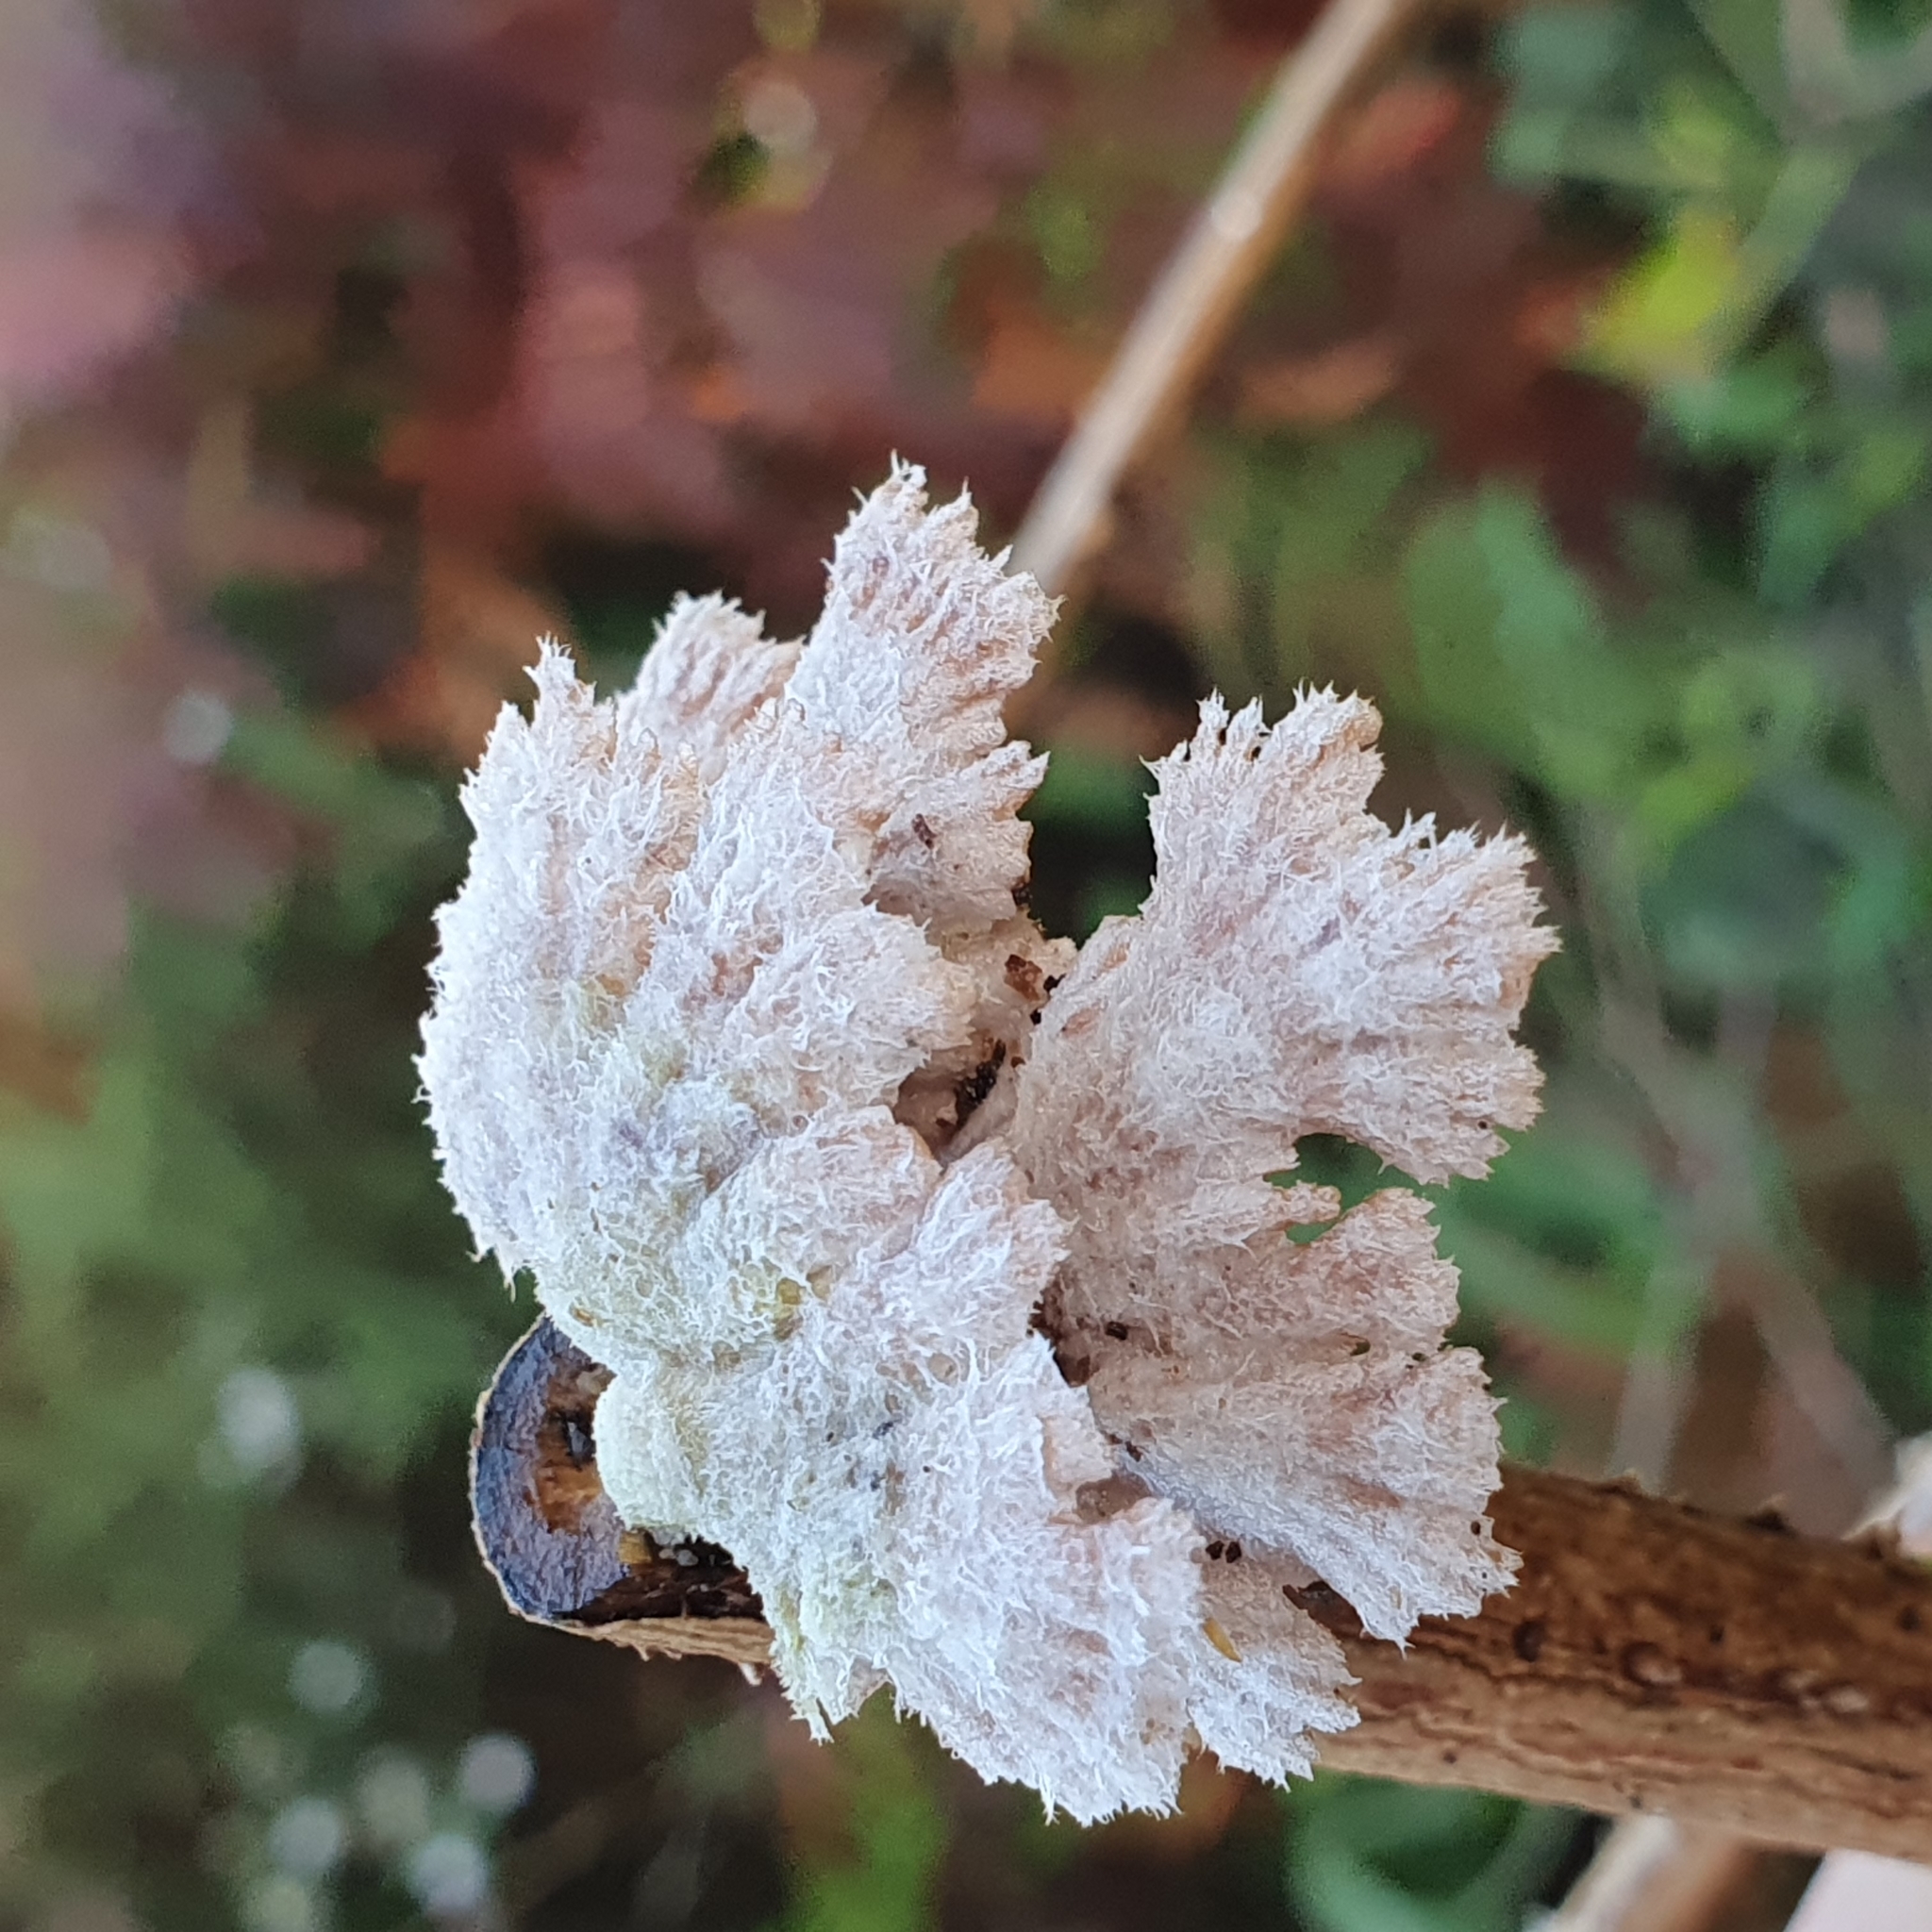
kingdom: Fungi
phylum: Basidiomycota
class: Agaricomycetes
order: Agaricales
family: Schizophyllaceae
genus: Schizophyllum
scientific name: Schizophyllum commune
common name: Common porecrust
